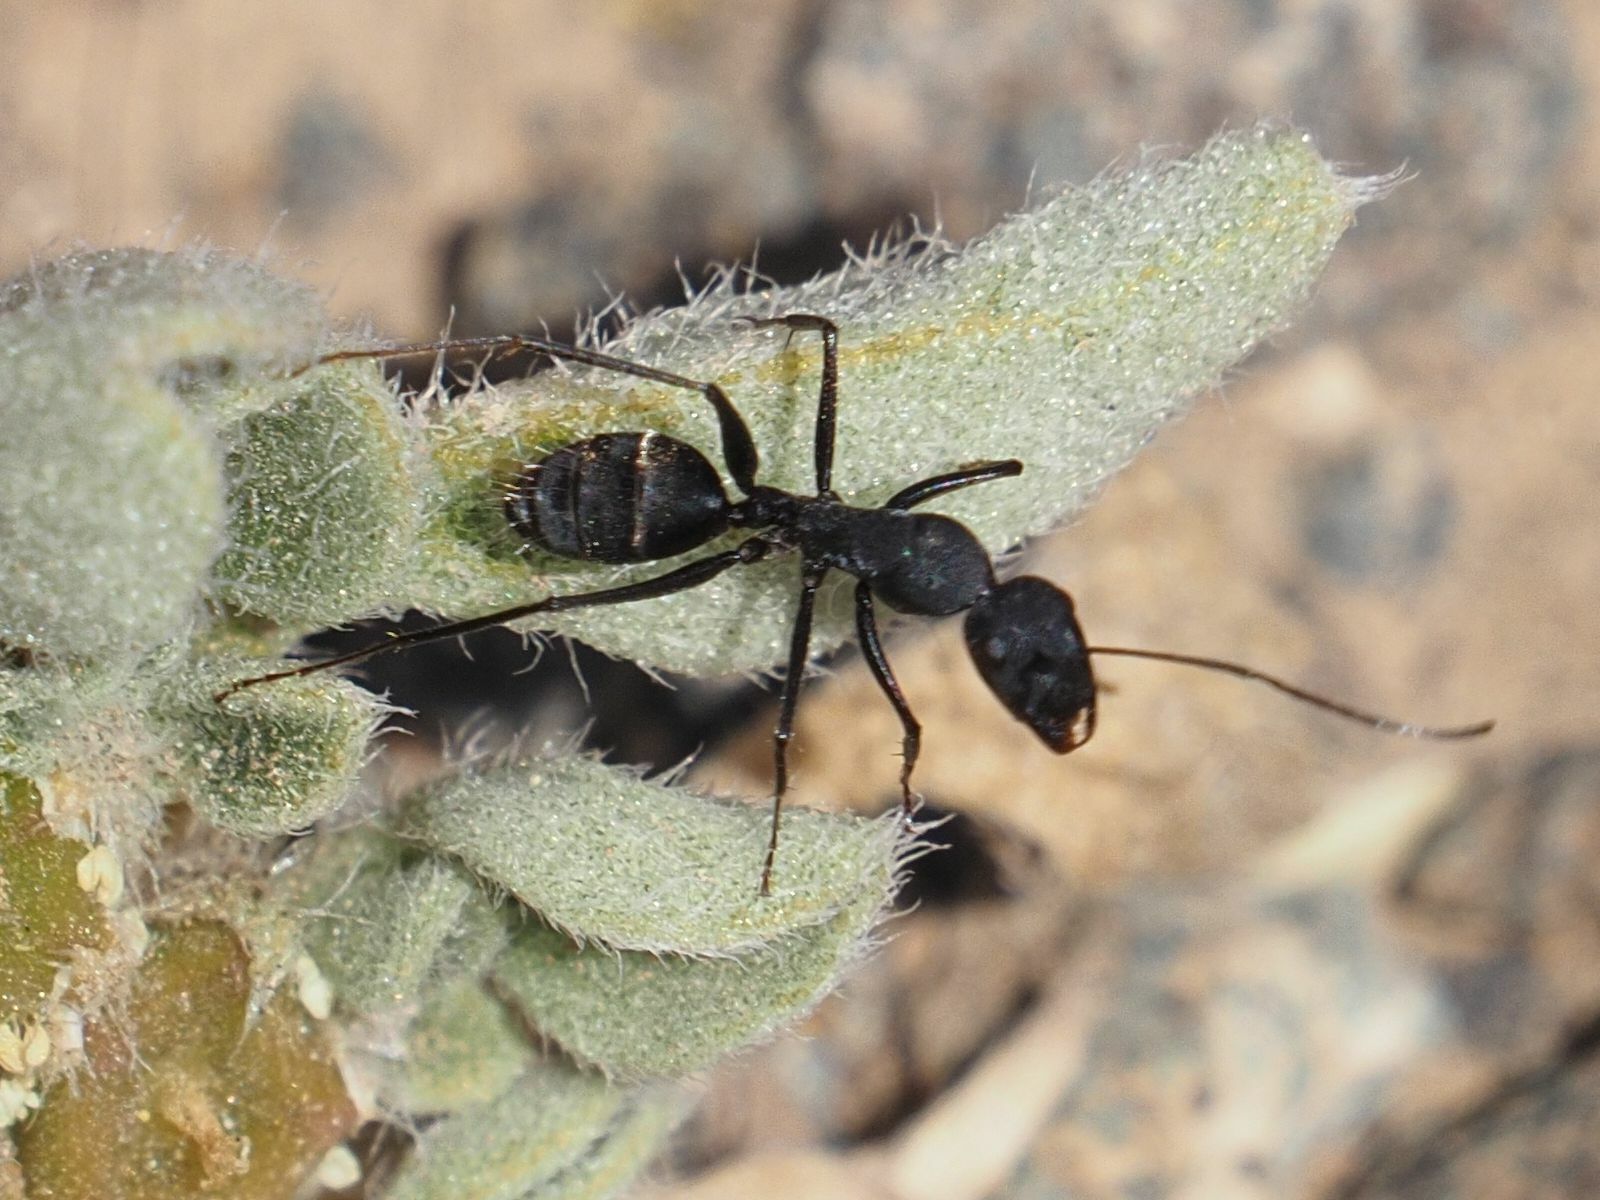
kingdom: Animalia
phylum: Arthropoda
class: Insecta
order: Hymenoptera
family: Formicidae
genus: Camponotus
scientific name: Camponotus feai
